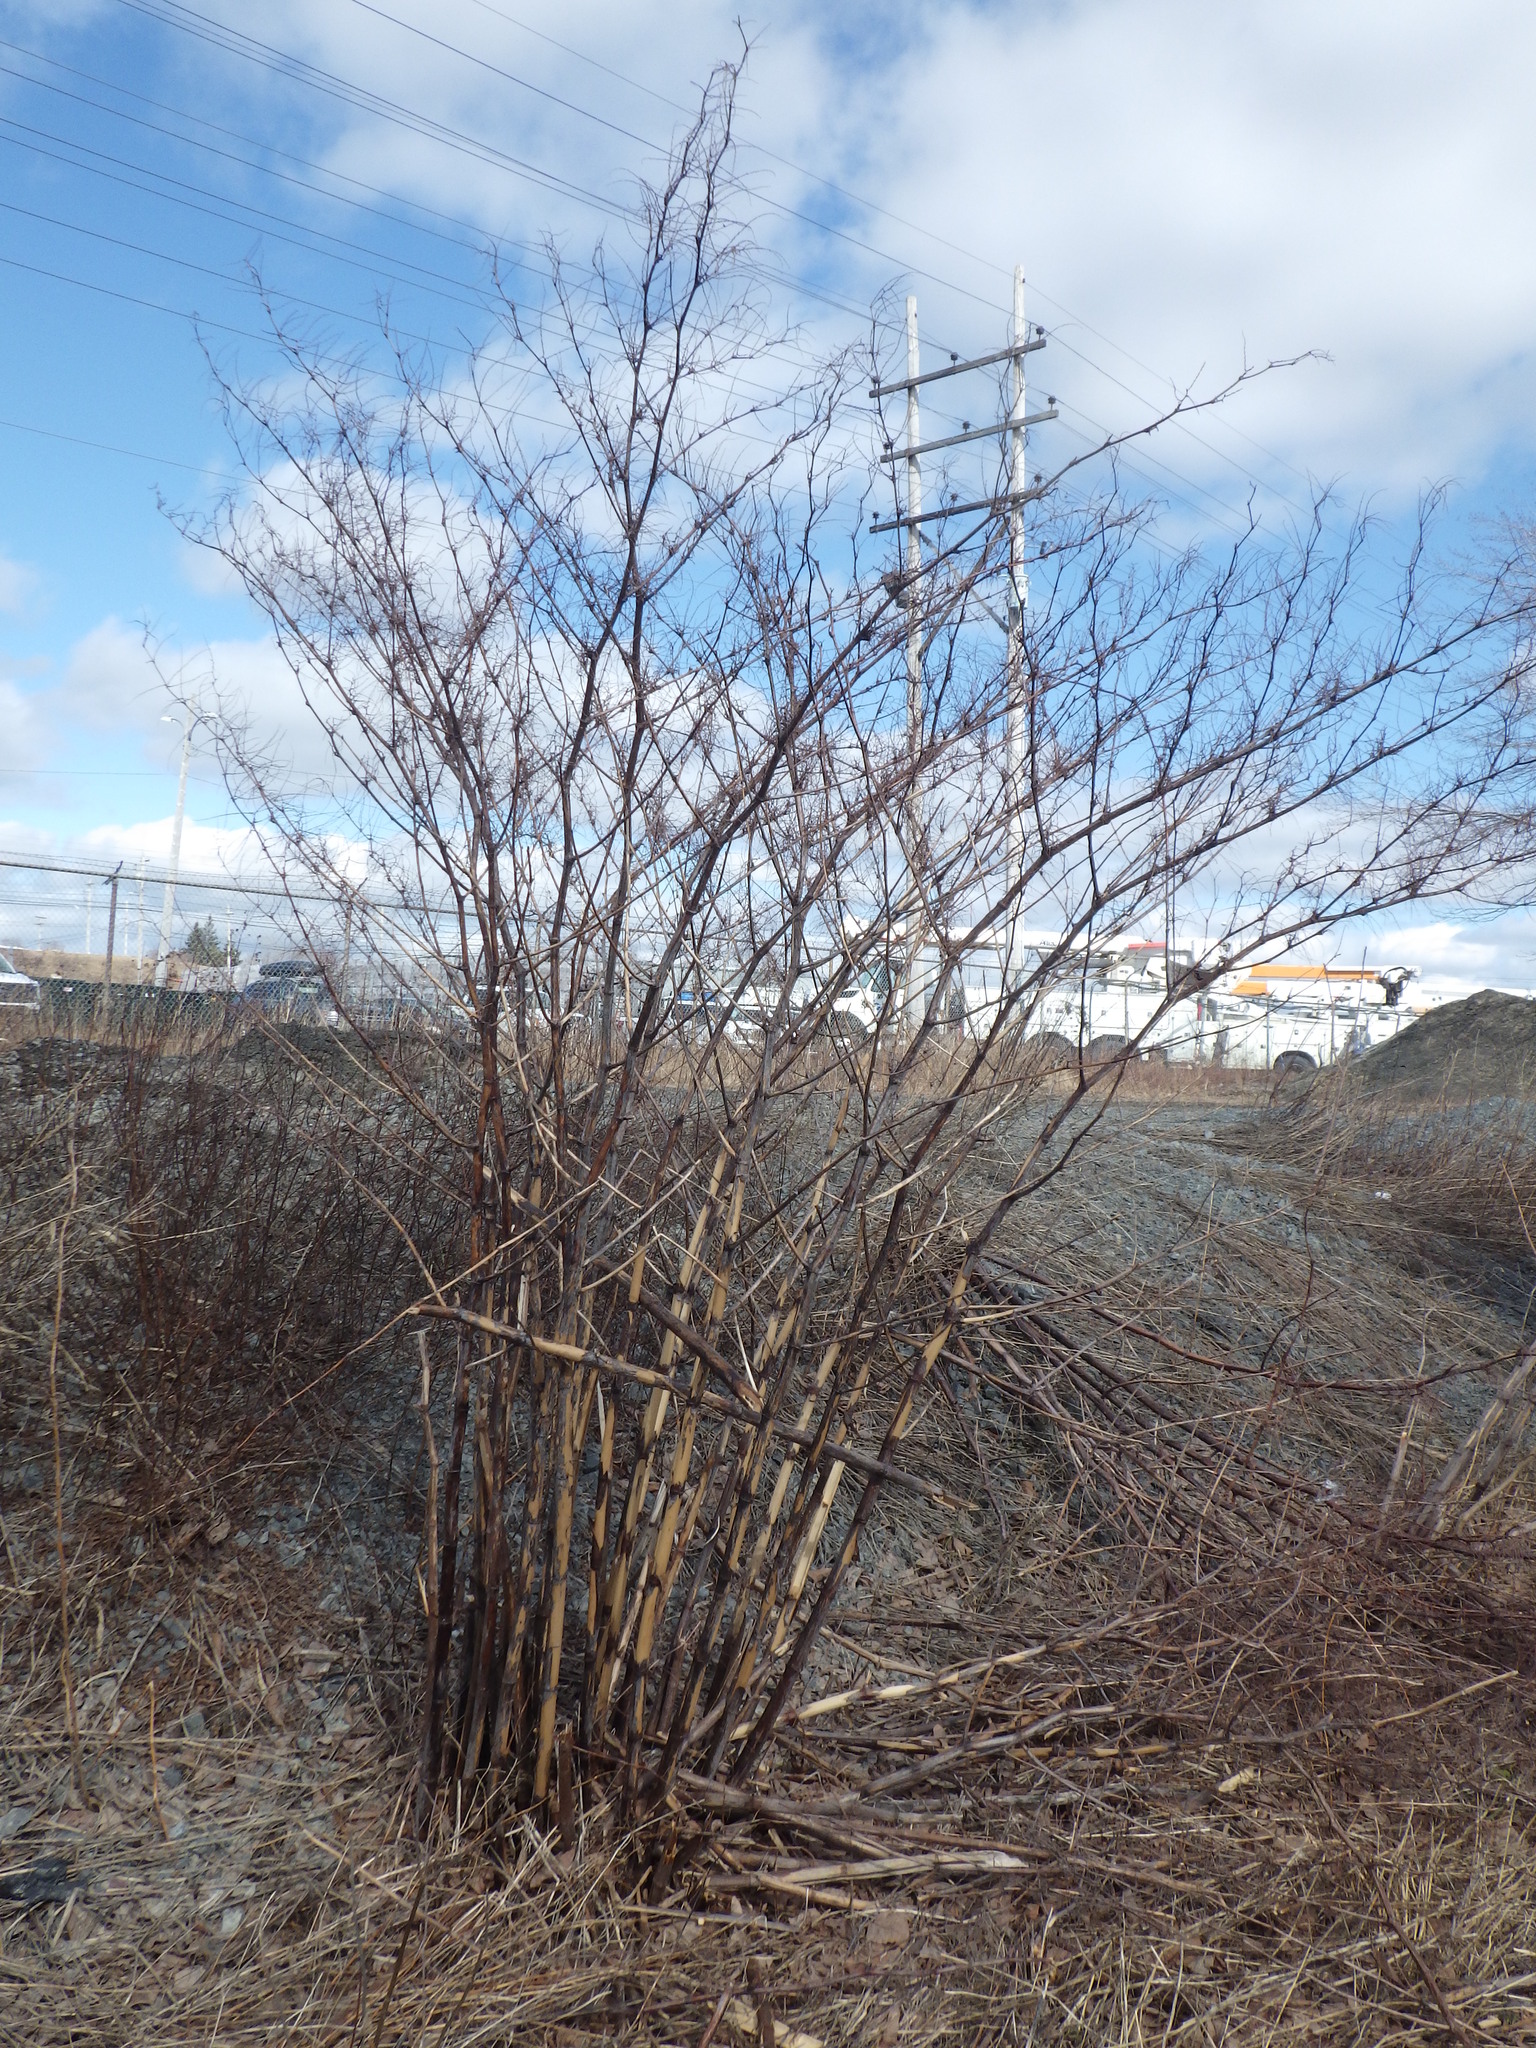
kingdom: Plantae
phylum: Tracheophyta
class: Magnoliopsida
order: Caryophyllales
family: Polygonaceae
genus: Reynoutria
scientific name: Reynoutria japonica
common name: Japanese knotweed
